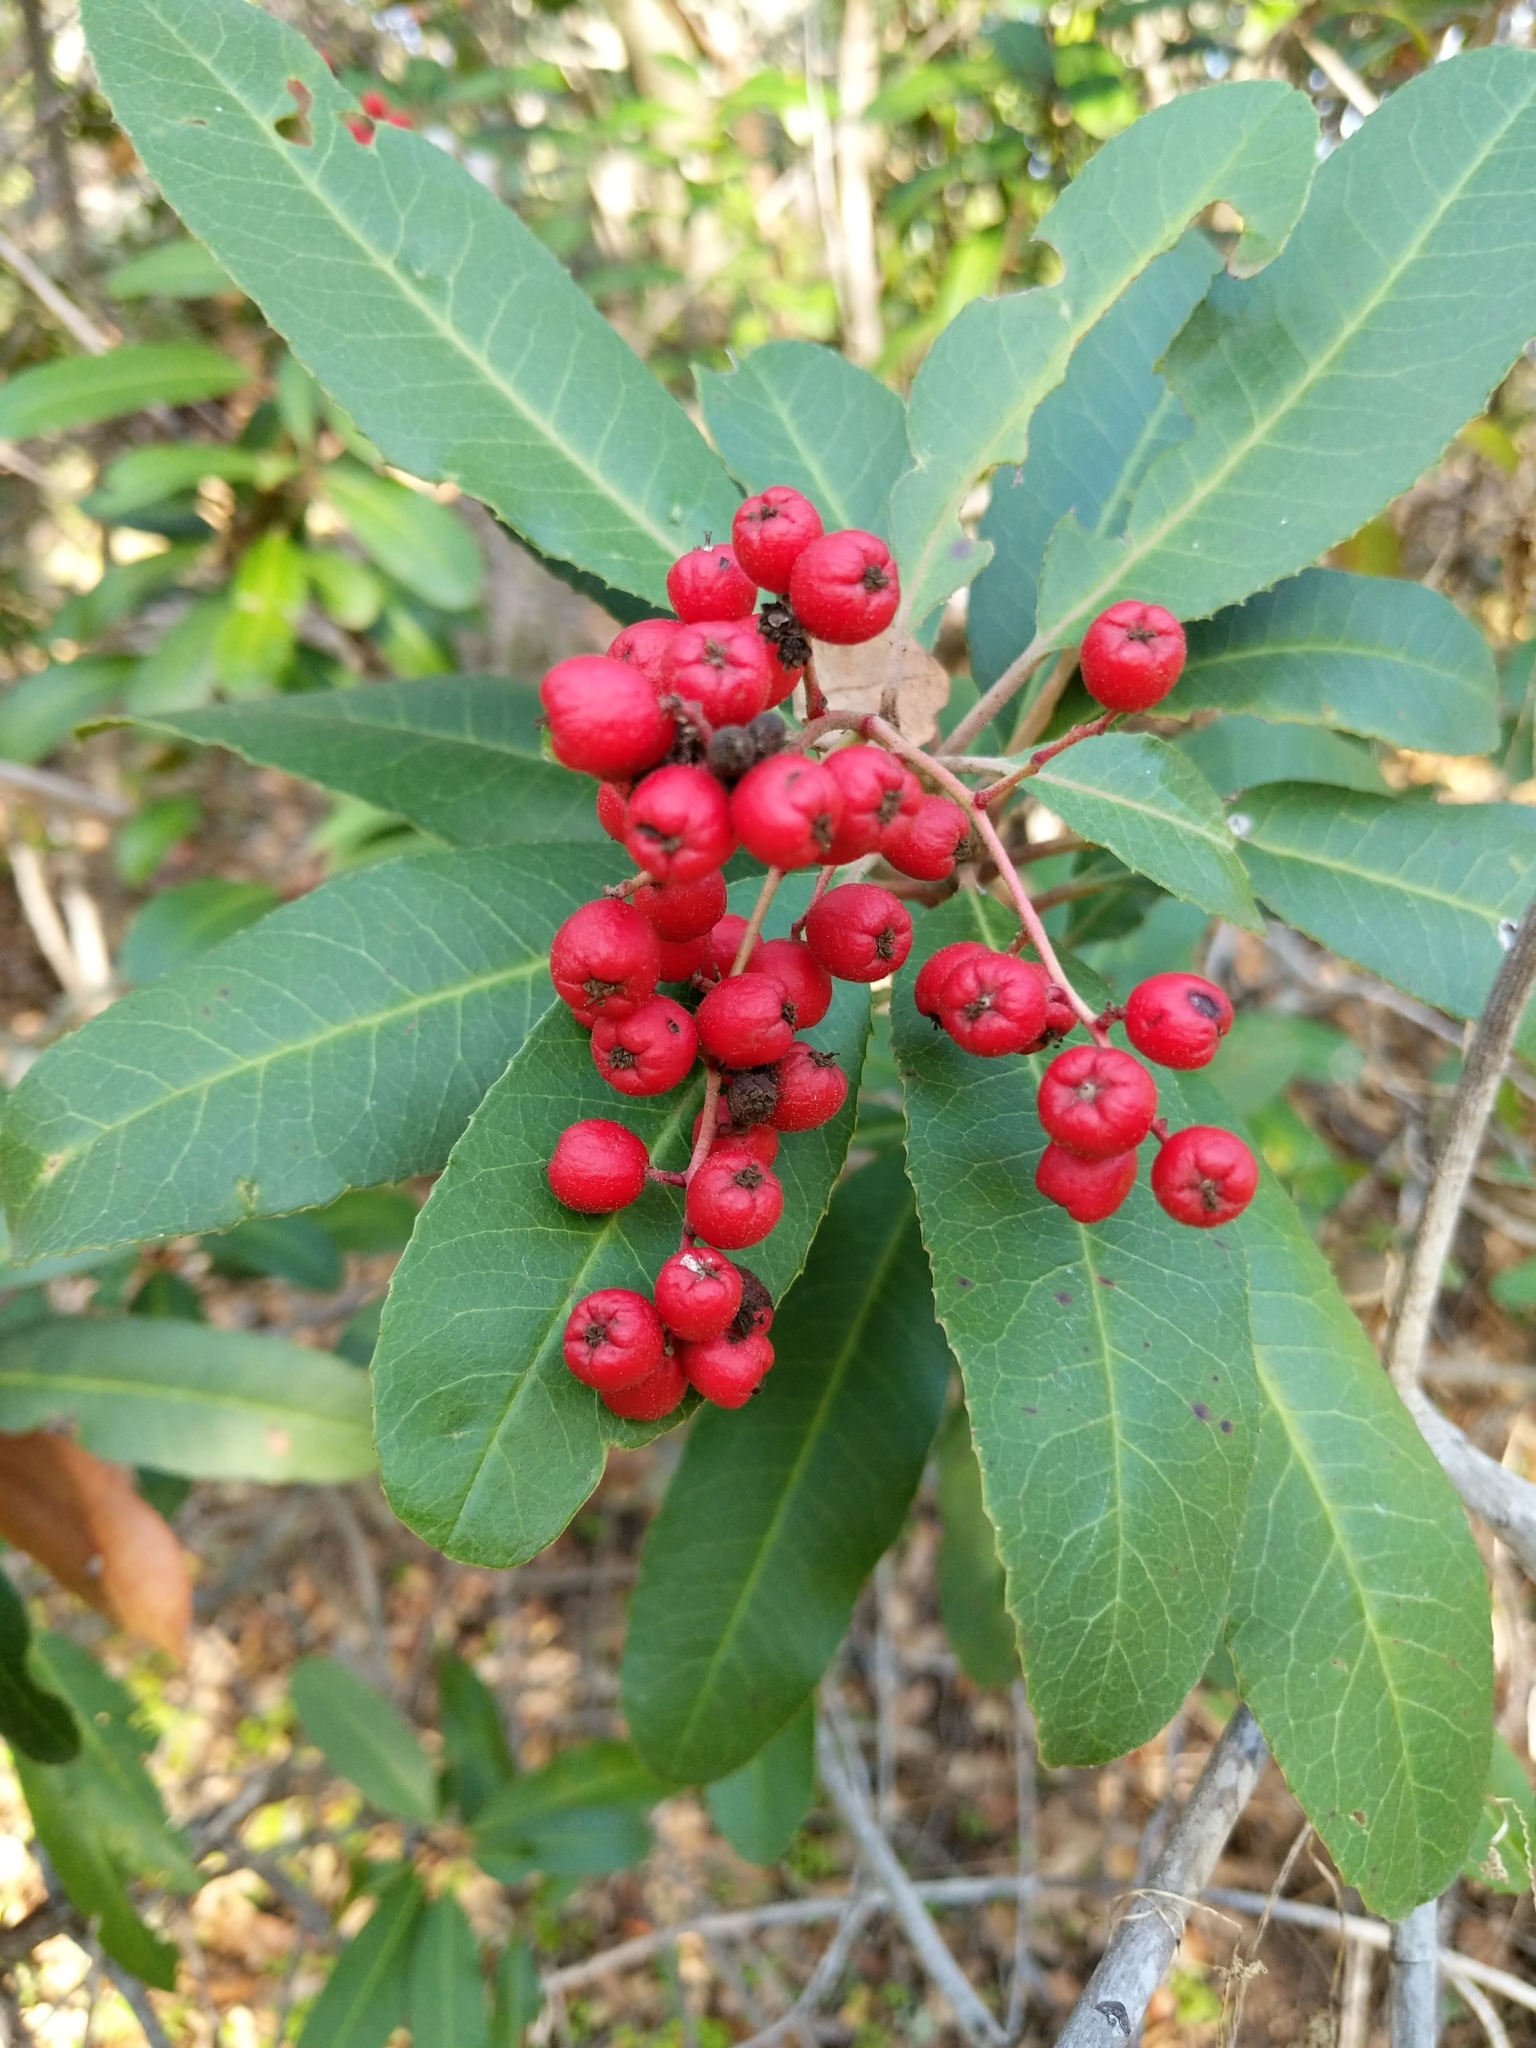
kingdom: Plantae
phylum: Tracheophyta
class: Magnoliopsida
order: Rosales
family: Rosaceae
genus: Heteromeles
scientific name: Heteromeles arbutifolia
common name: California-holly
